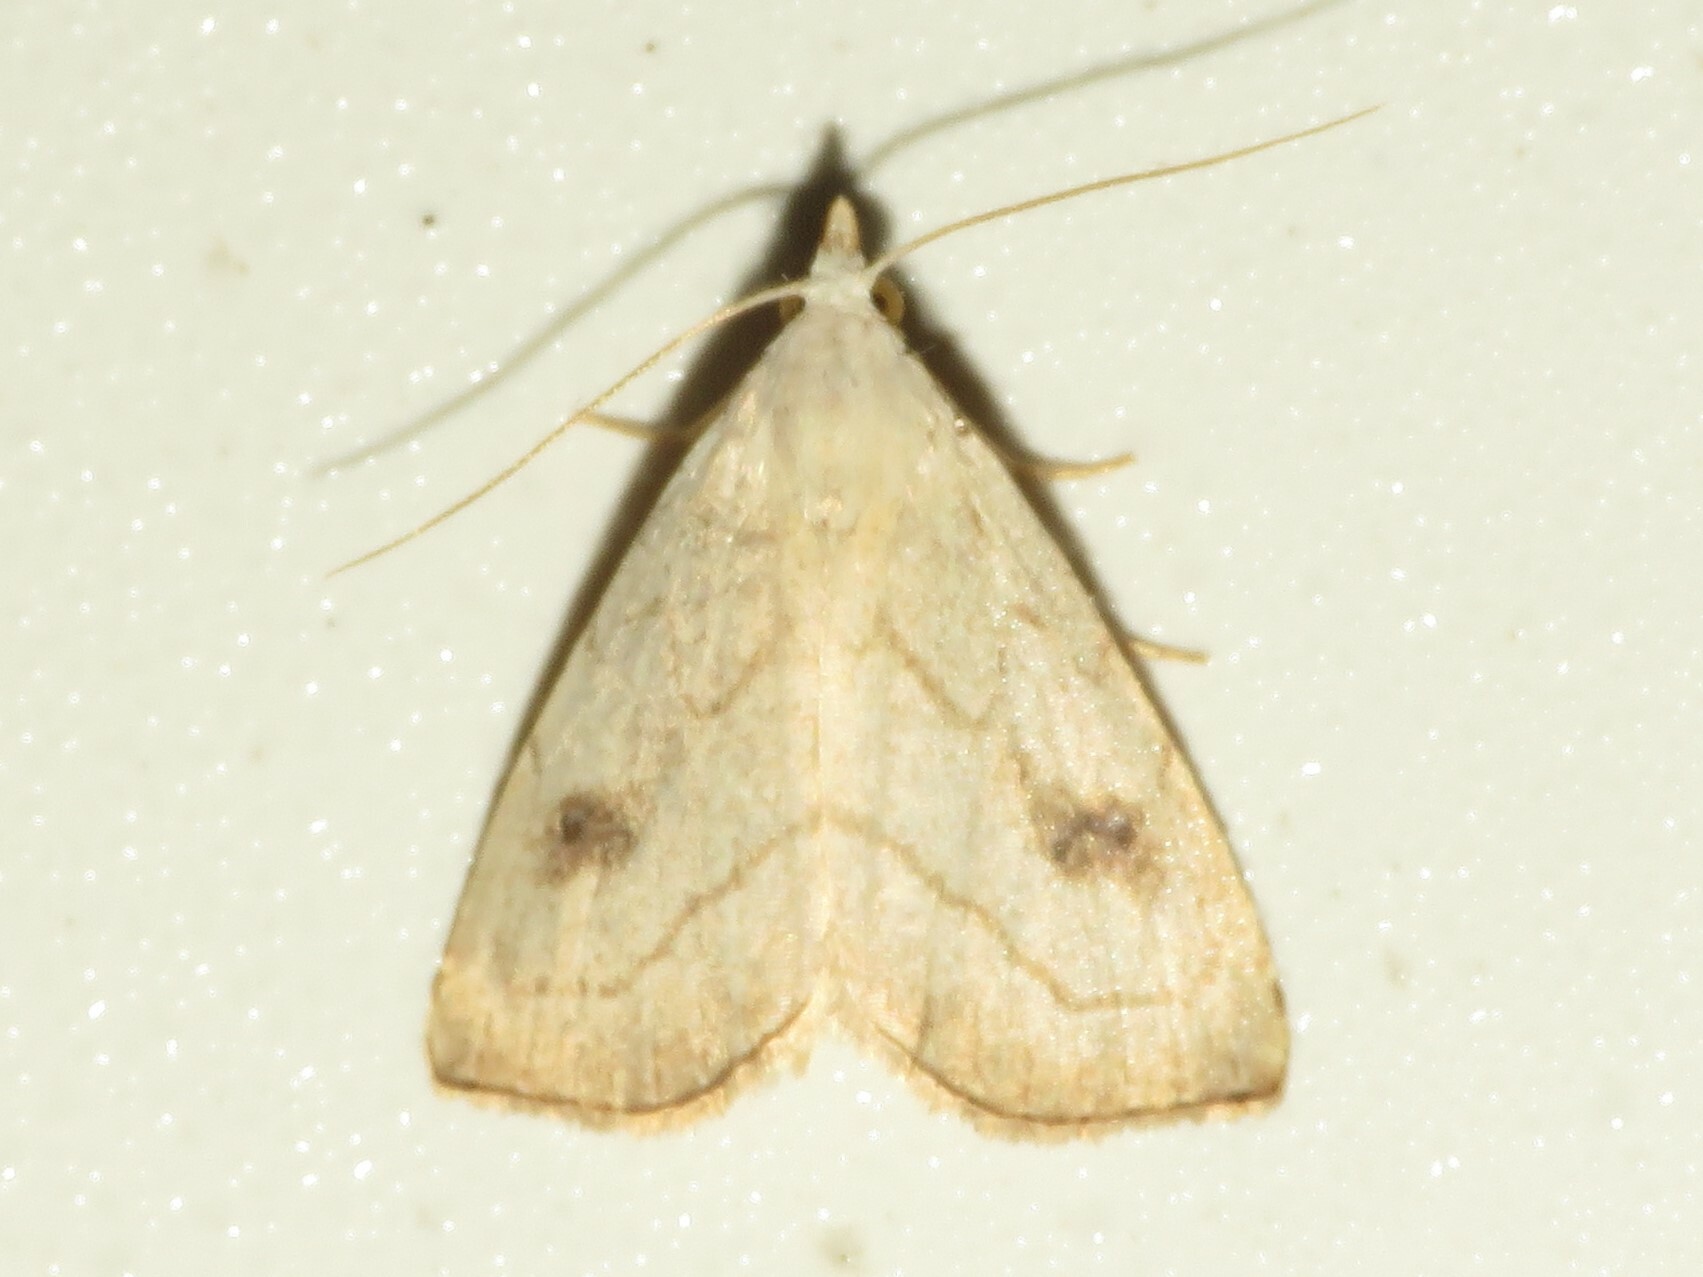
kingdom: Animalia
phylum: Arthropoda
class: Insecta
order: Lepidoptera
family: Erebidae
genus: Rivula
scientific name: Rivula propinqualis
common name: Spotted grass moth
